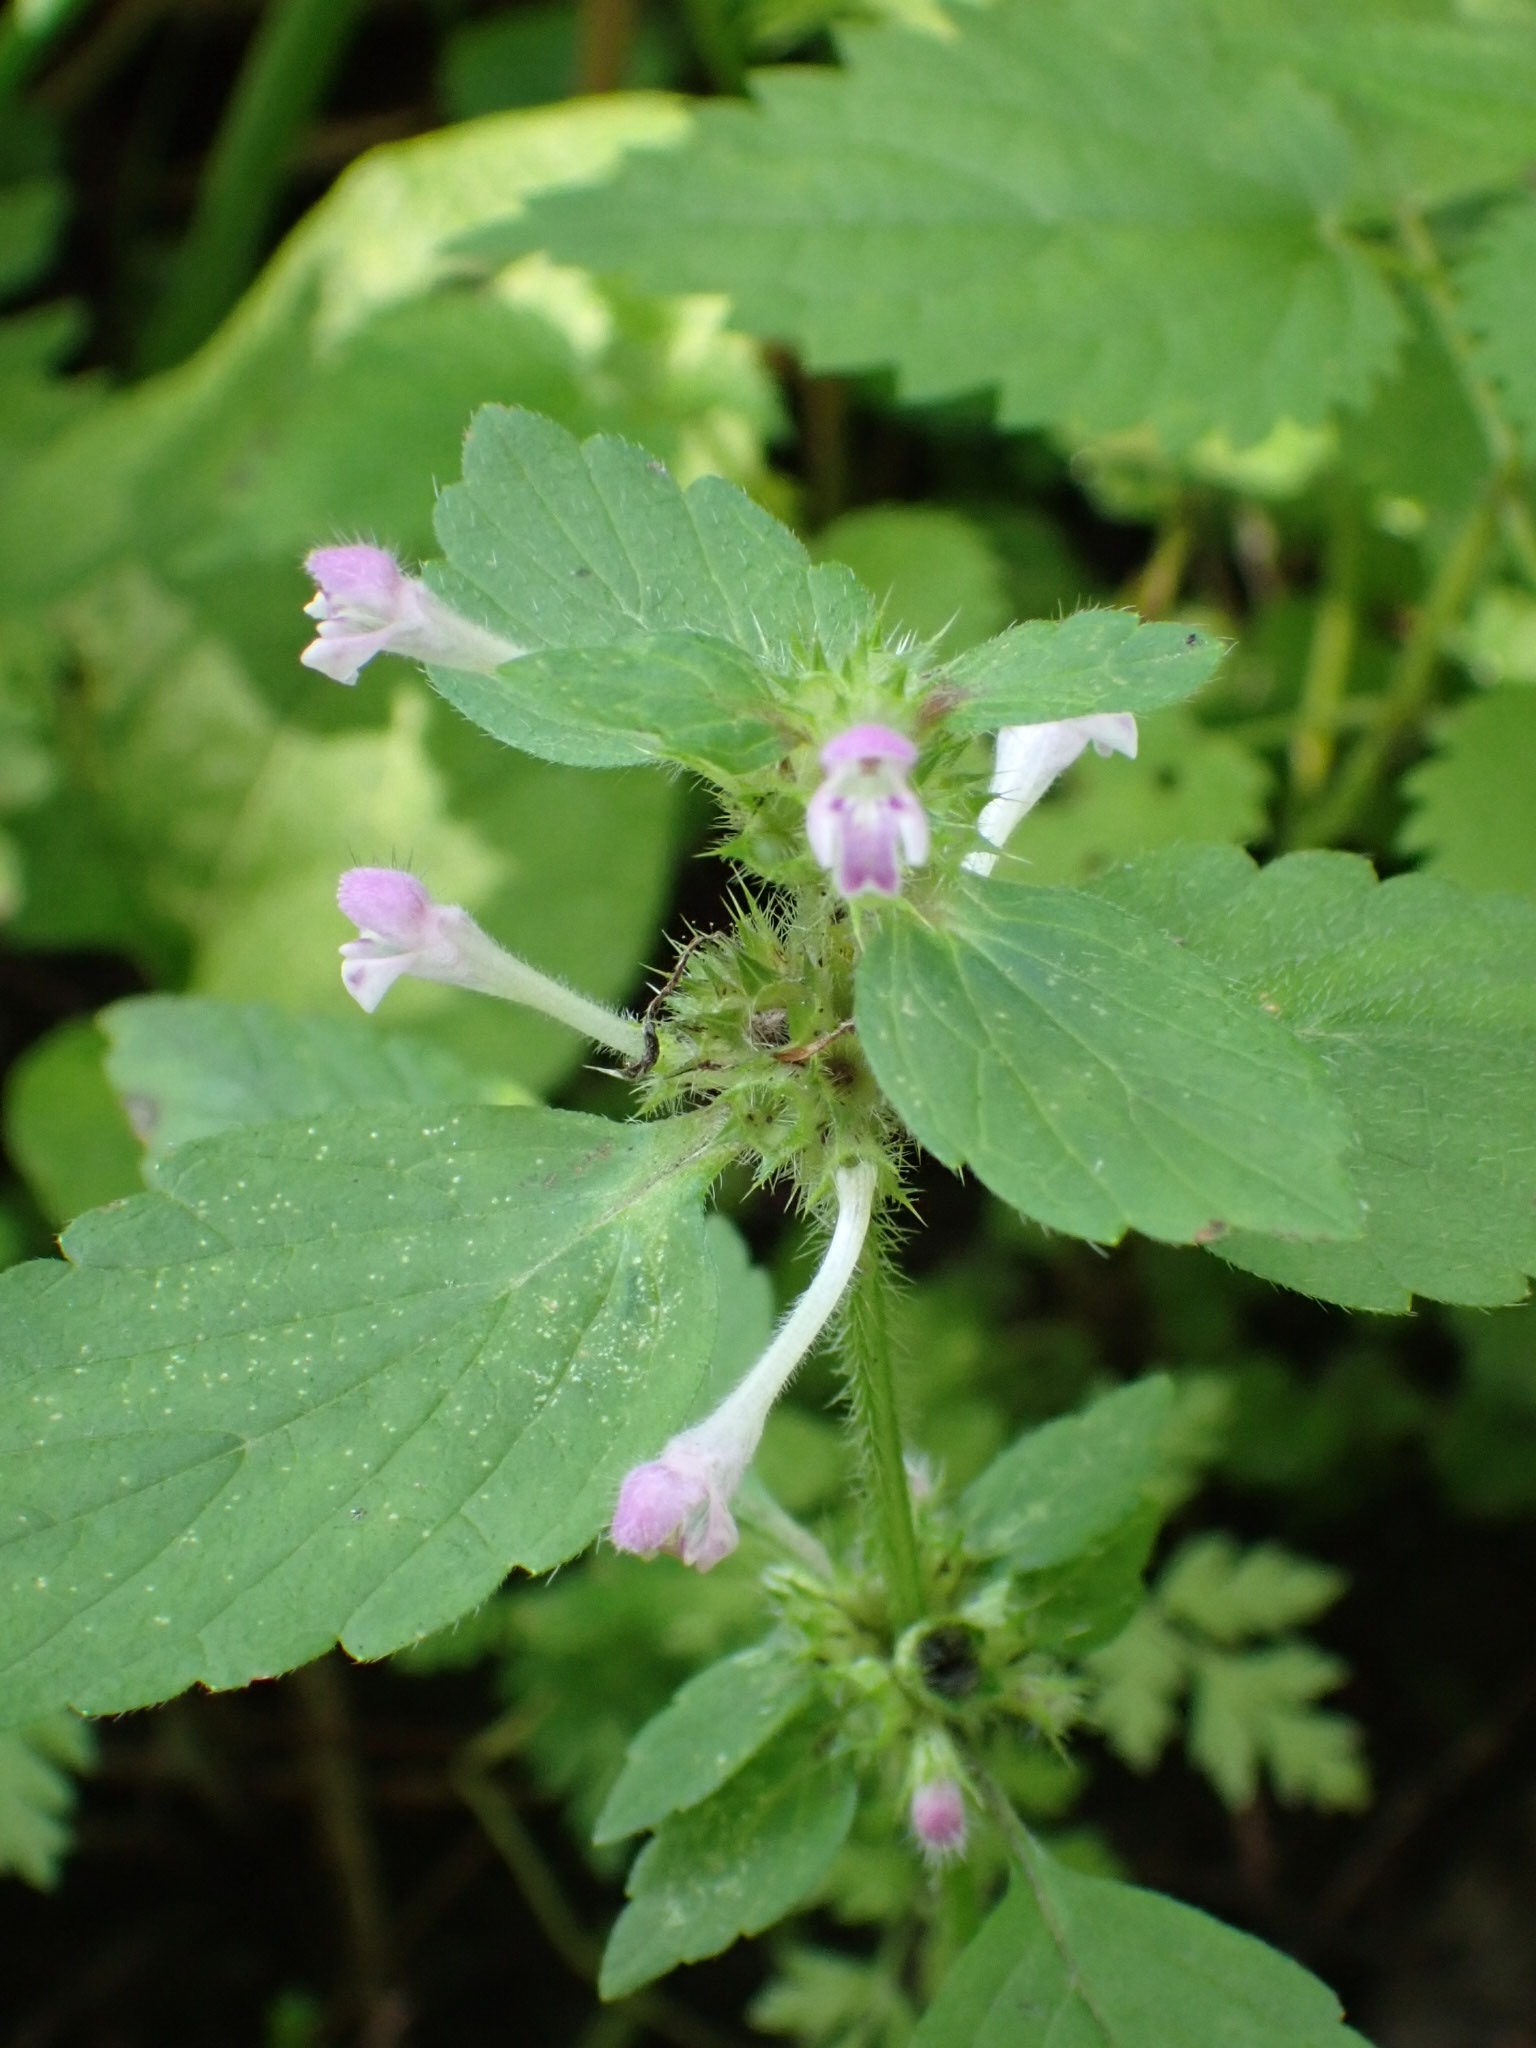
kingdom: Plantae
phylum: Tracheophyta
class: Magnoliopsida
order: Lamiales
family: Lamiaceae
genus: Galeopsis
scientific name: Galeopsis bifida
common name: Bifid hemp-nettle
